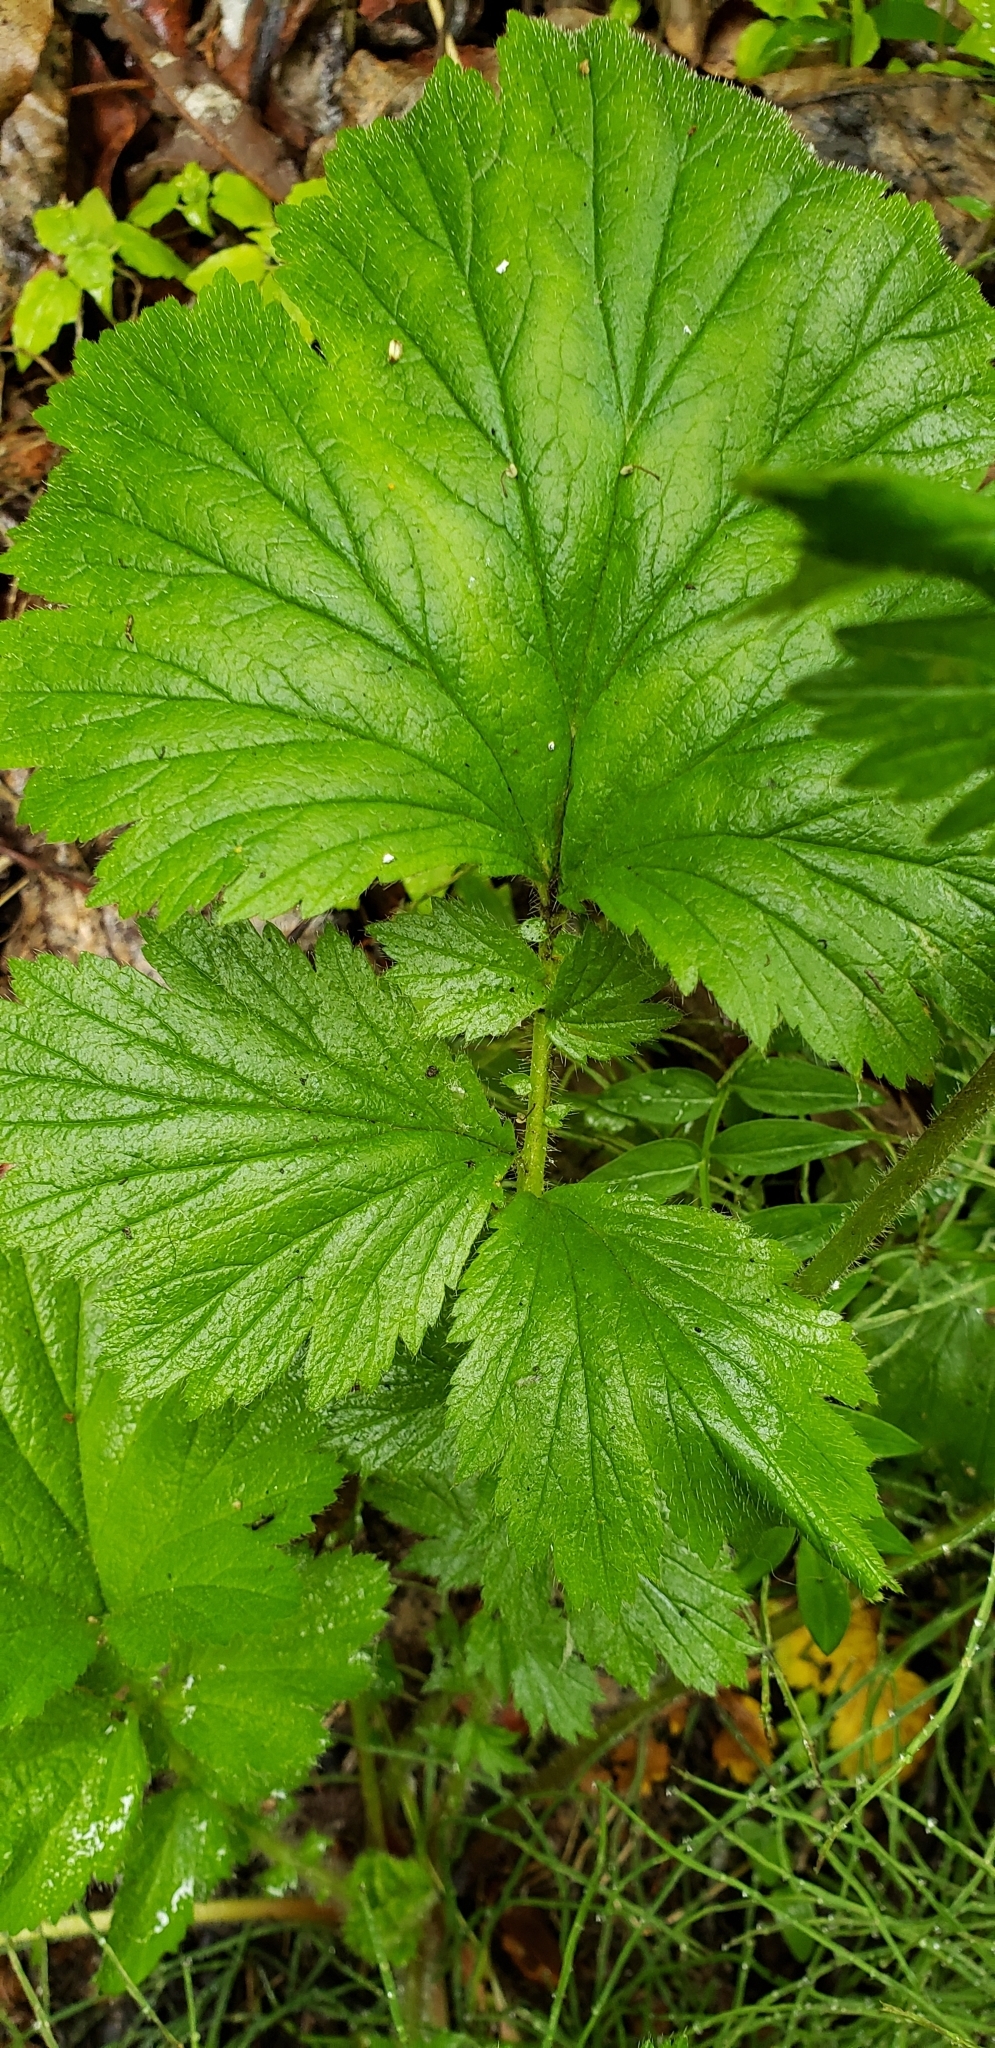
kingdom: Plantae
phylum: Tracheophyta
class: Magnoliopsida
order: Rosales
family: Rosaceae
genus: Geum
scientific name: Geum macrophyllum
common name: Large-leaved avens
